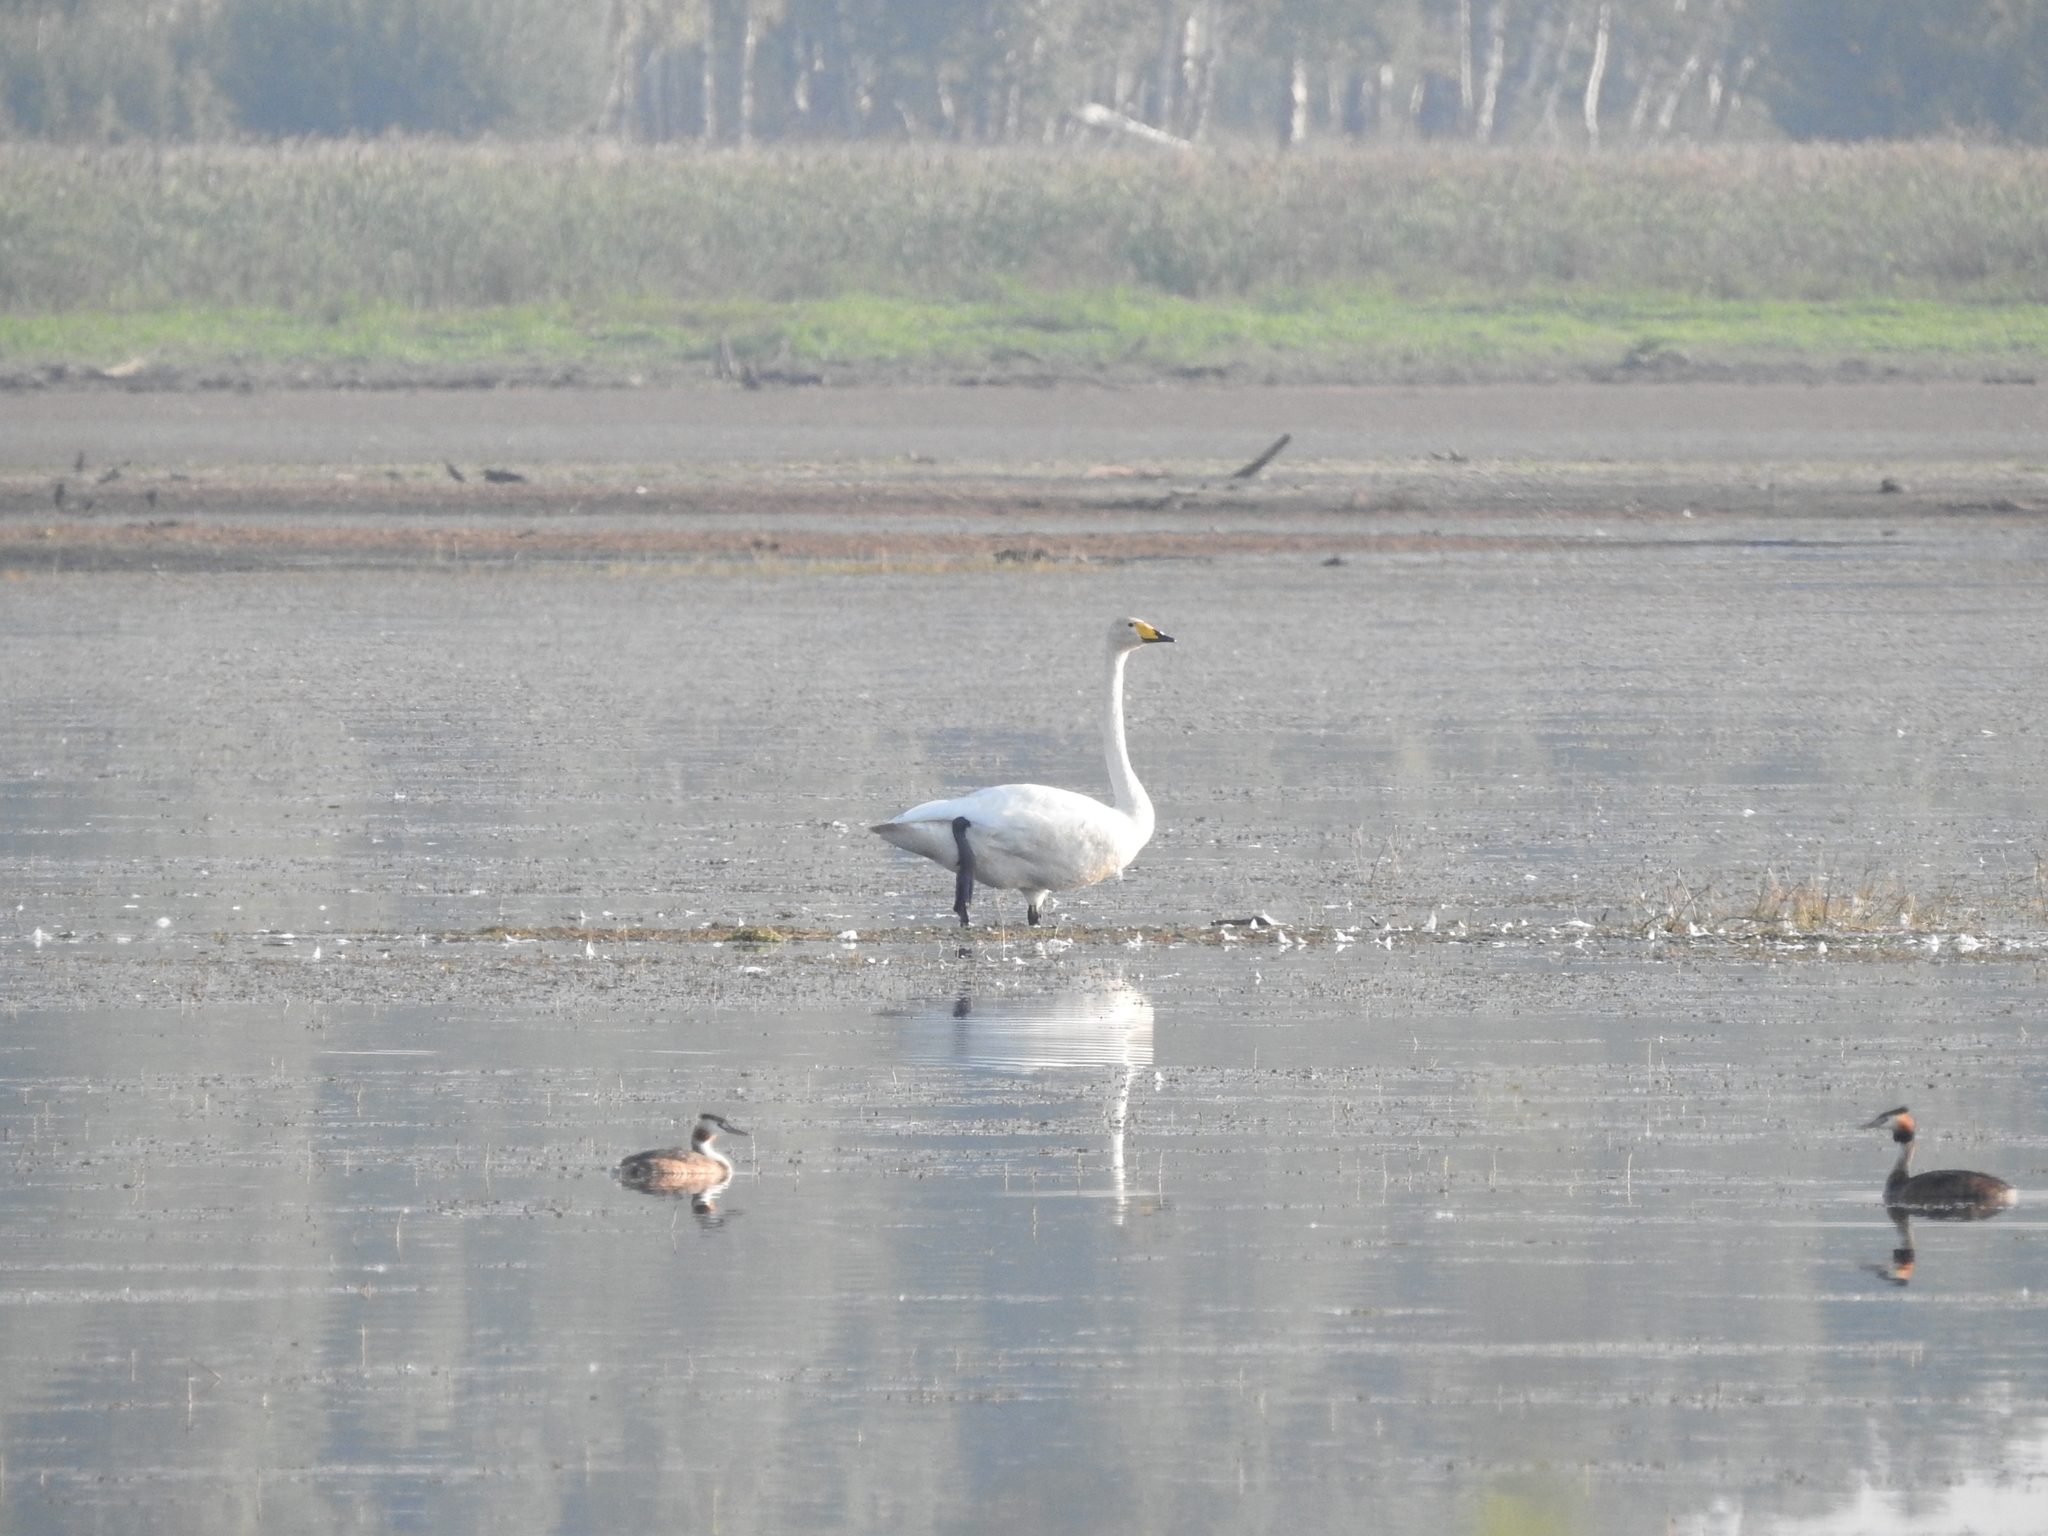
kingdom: Animalia
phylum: Chordata
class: Aves
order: Anseriformes
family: Anatidae
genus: Cygnus
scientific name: Cygnus cygnus
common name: Whooper swan
